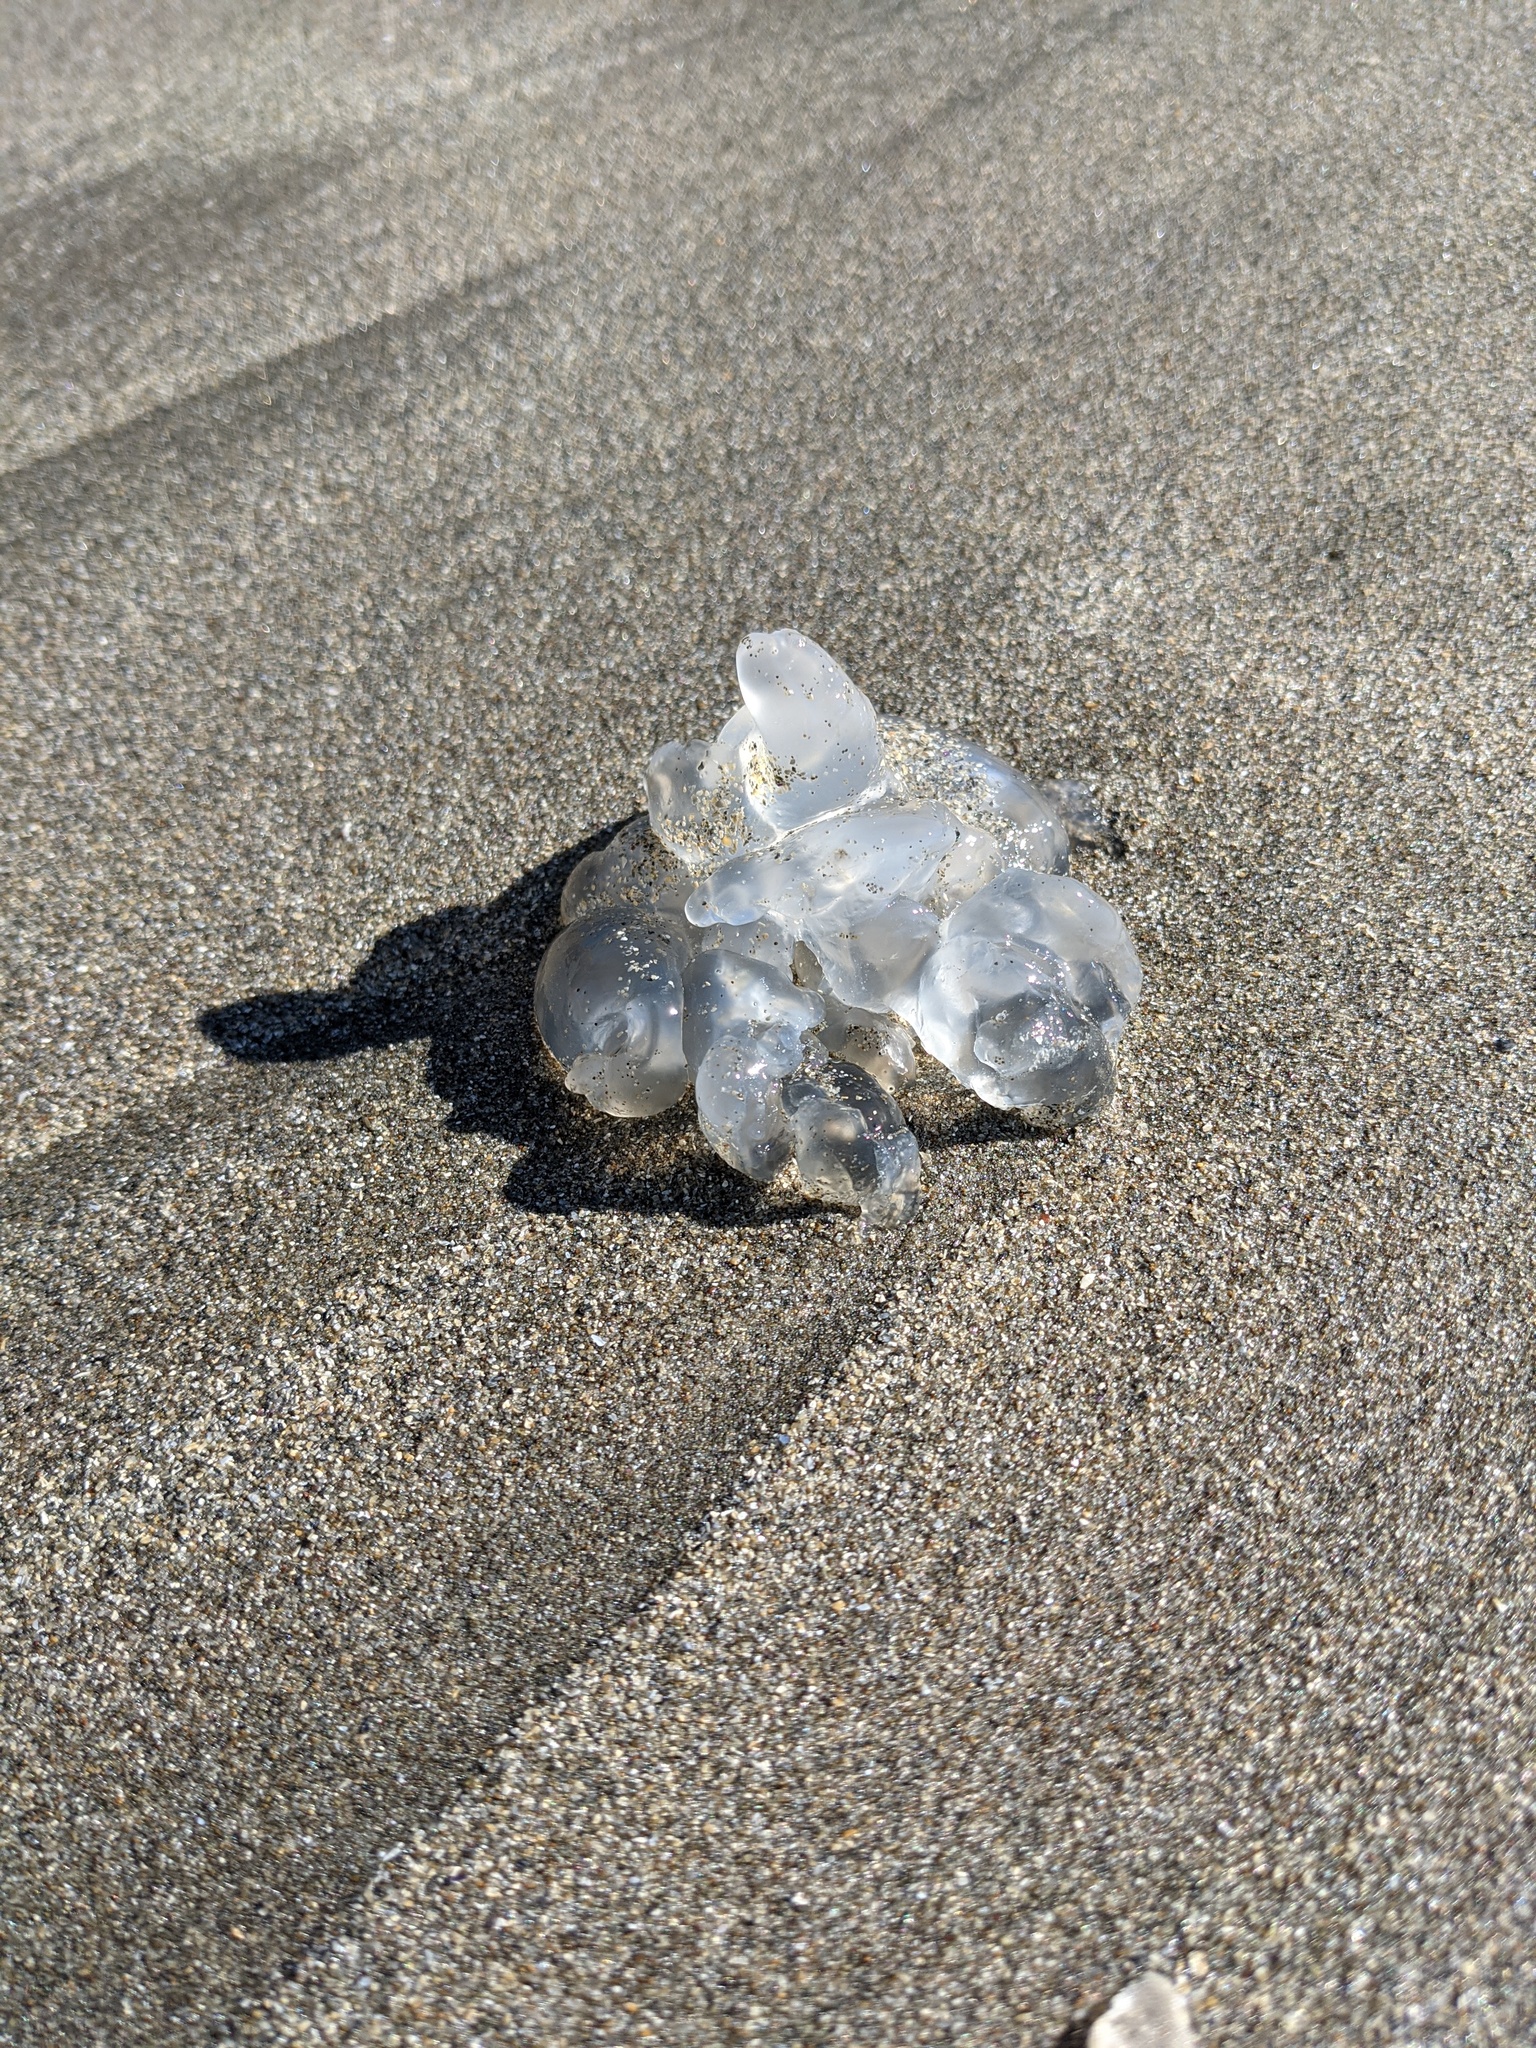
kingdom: Animalia
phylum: Cnidaria
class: Scyphozoa
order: Semaeostomeae
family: Ulmaridae
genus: Aurelia
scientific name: Aurelia labiata
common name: Pacific moon jelly
